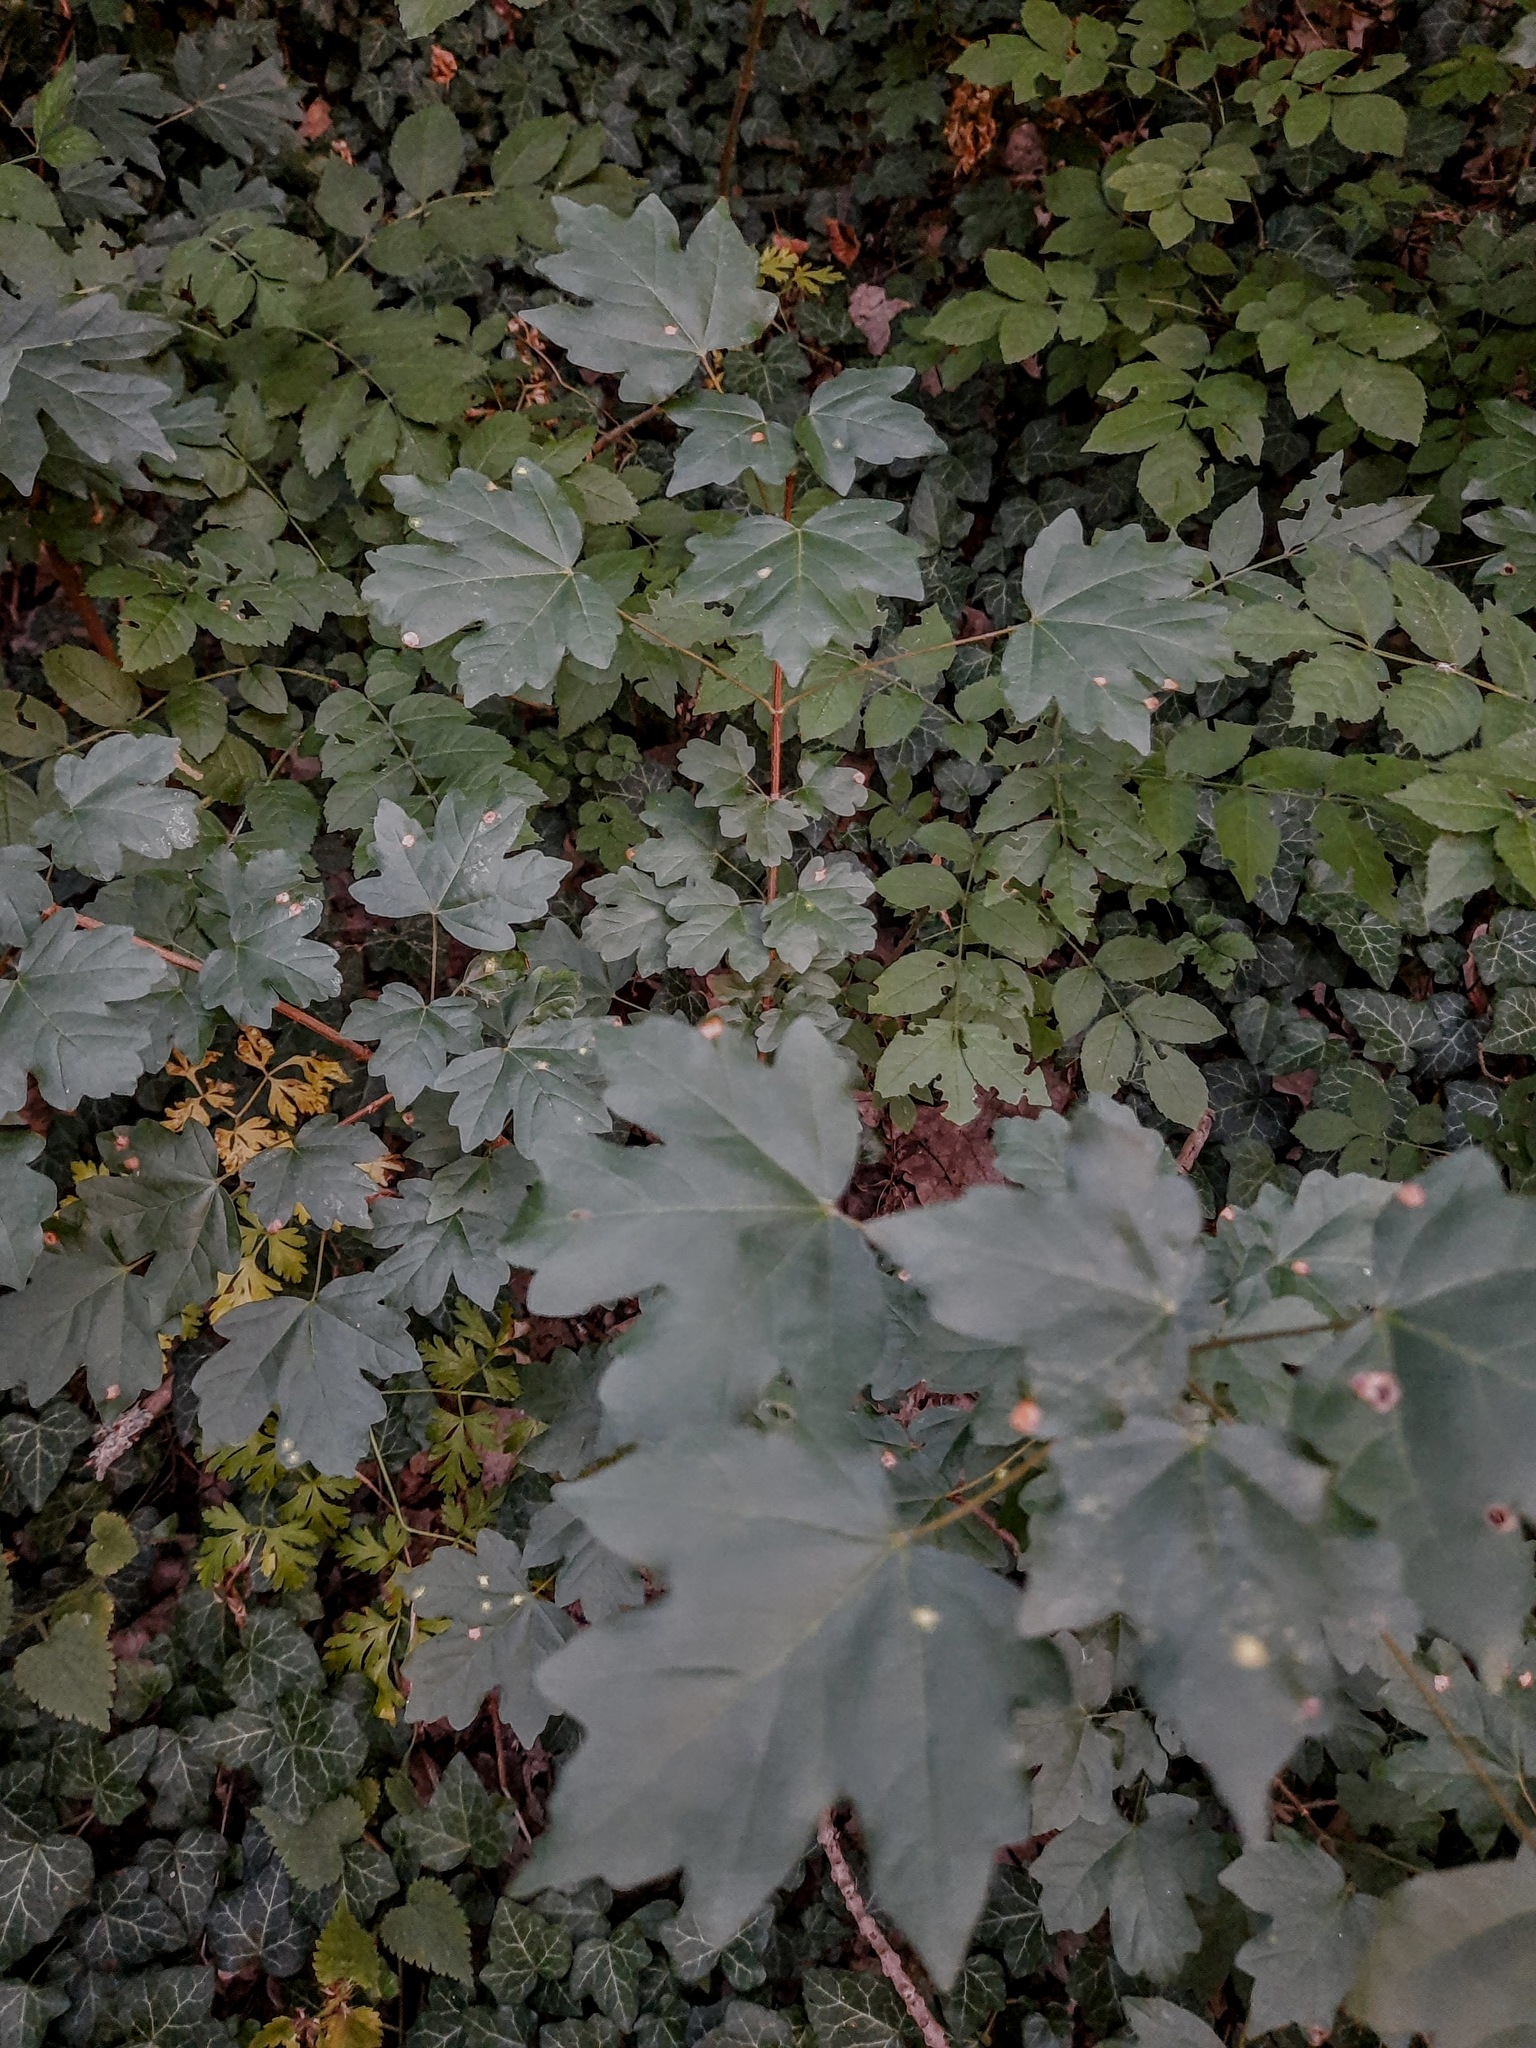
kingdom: Plantae
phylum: Tracheophyta
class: Magnoliopsida
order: Sapindales
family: Sapindaceae
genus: Acer
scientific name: Acer campestre
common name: Field maple
